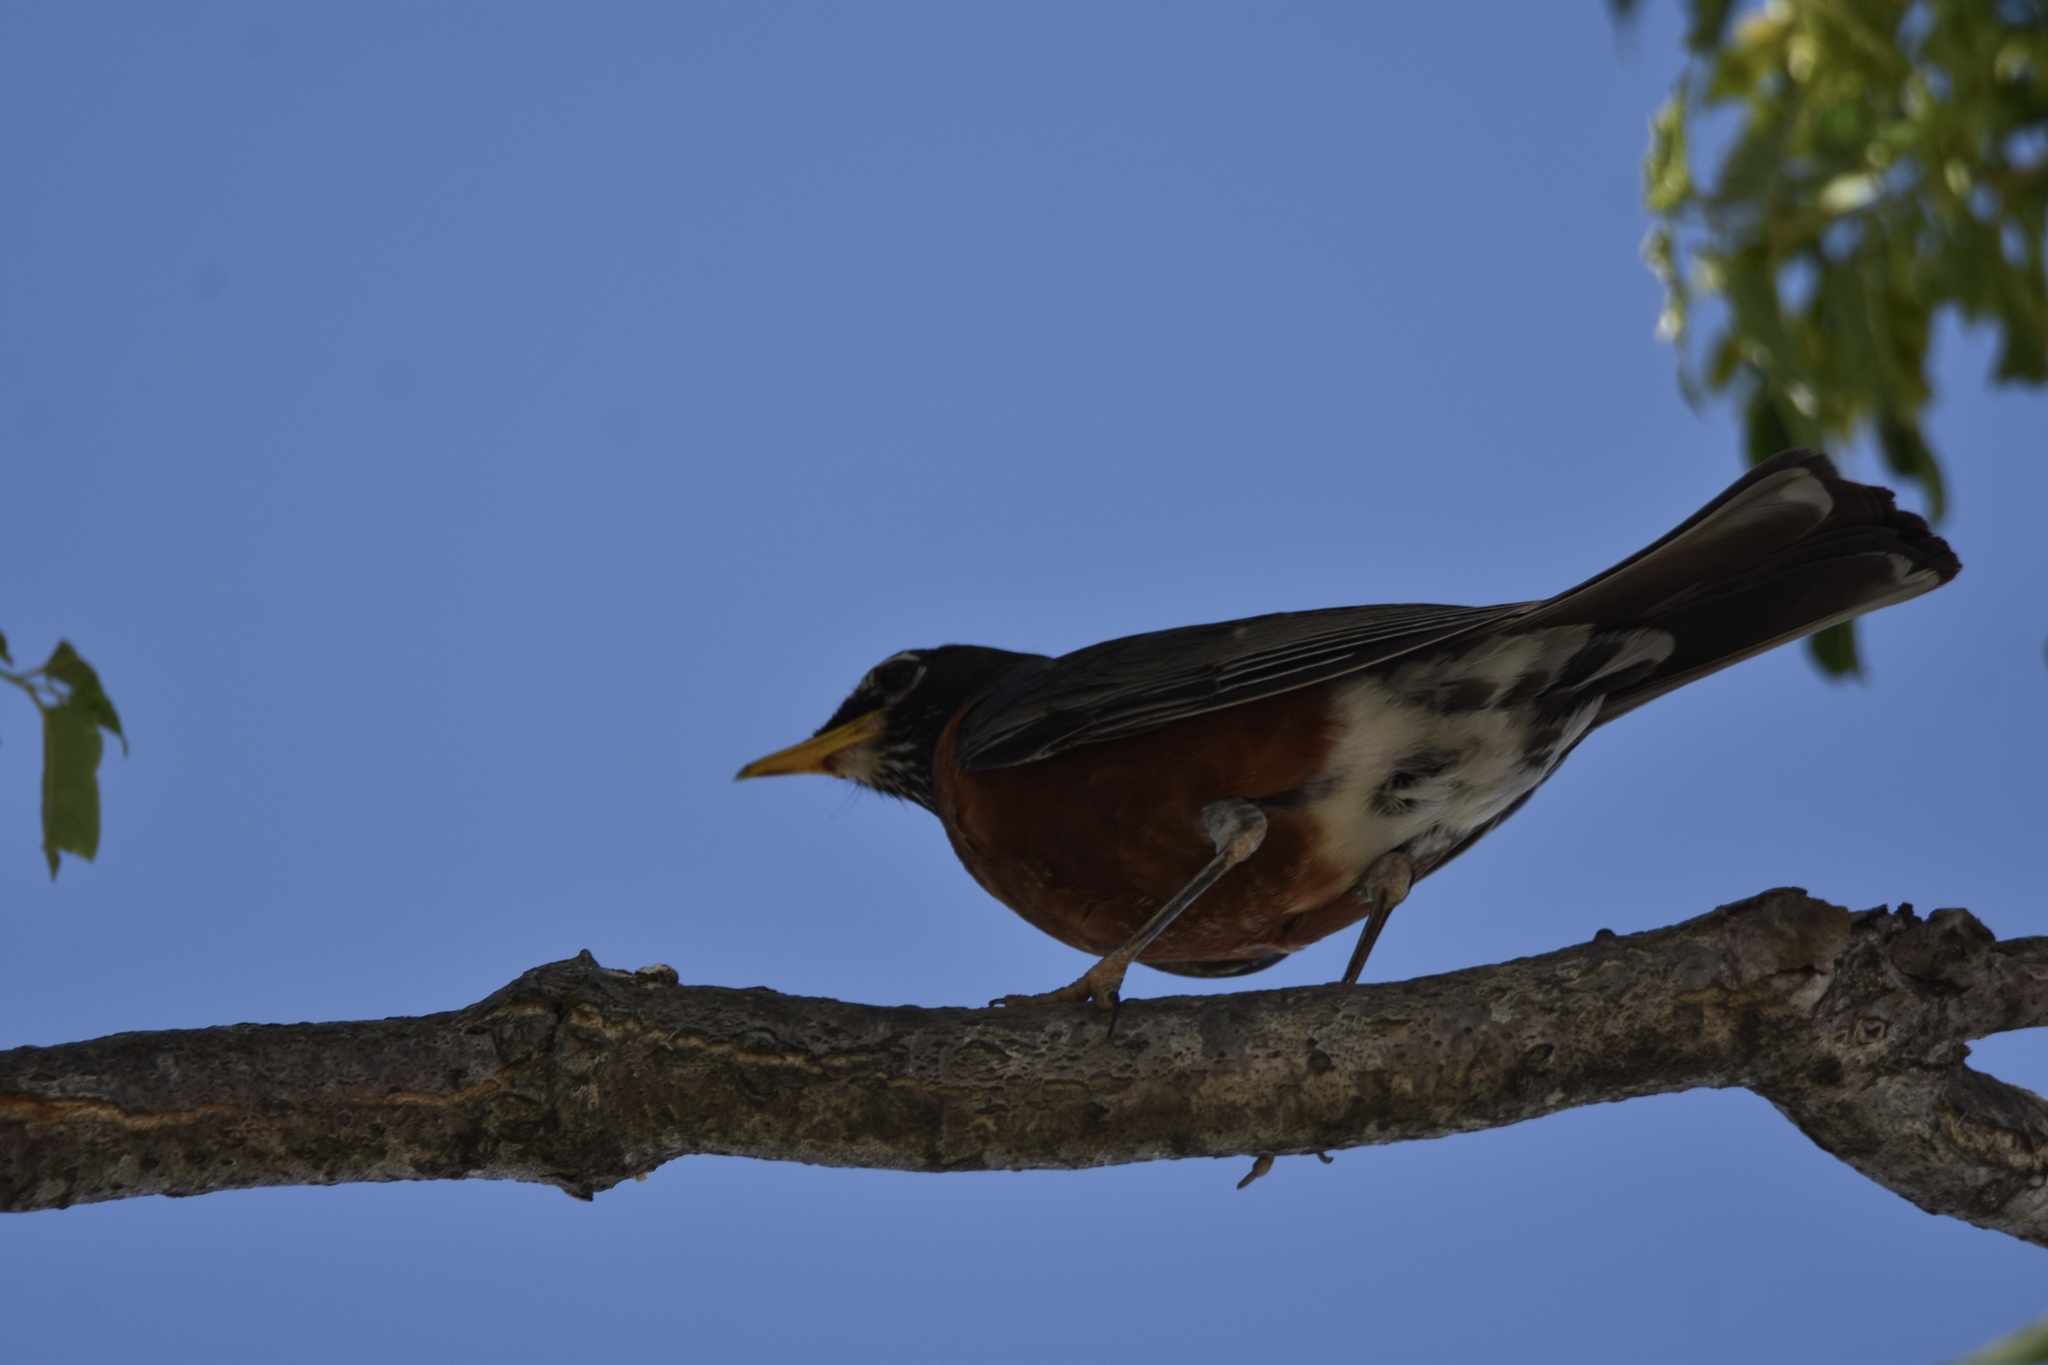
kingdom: Animalia
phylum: Chordata
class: Aves
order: Passeriformes
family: Turdidae
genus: Turdus
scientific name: Turdus migratorius
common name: American robin
